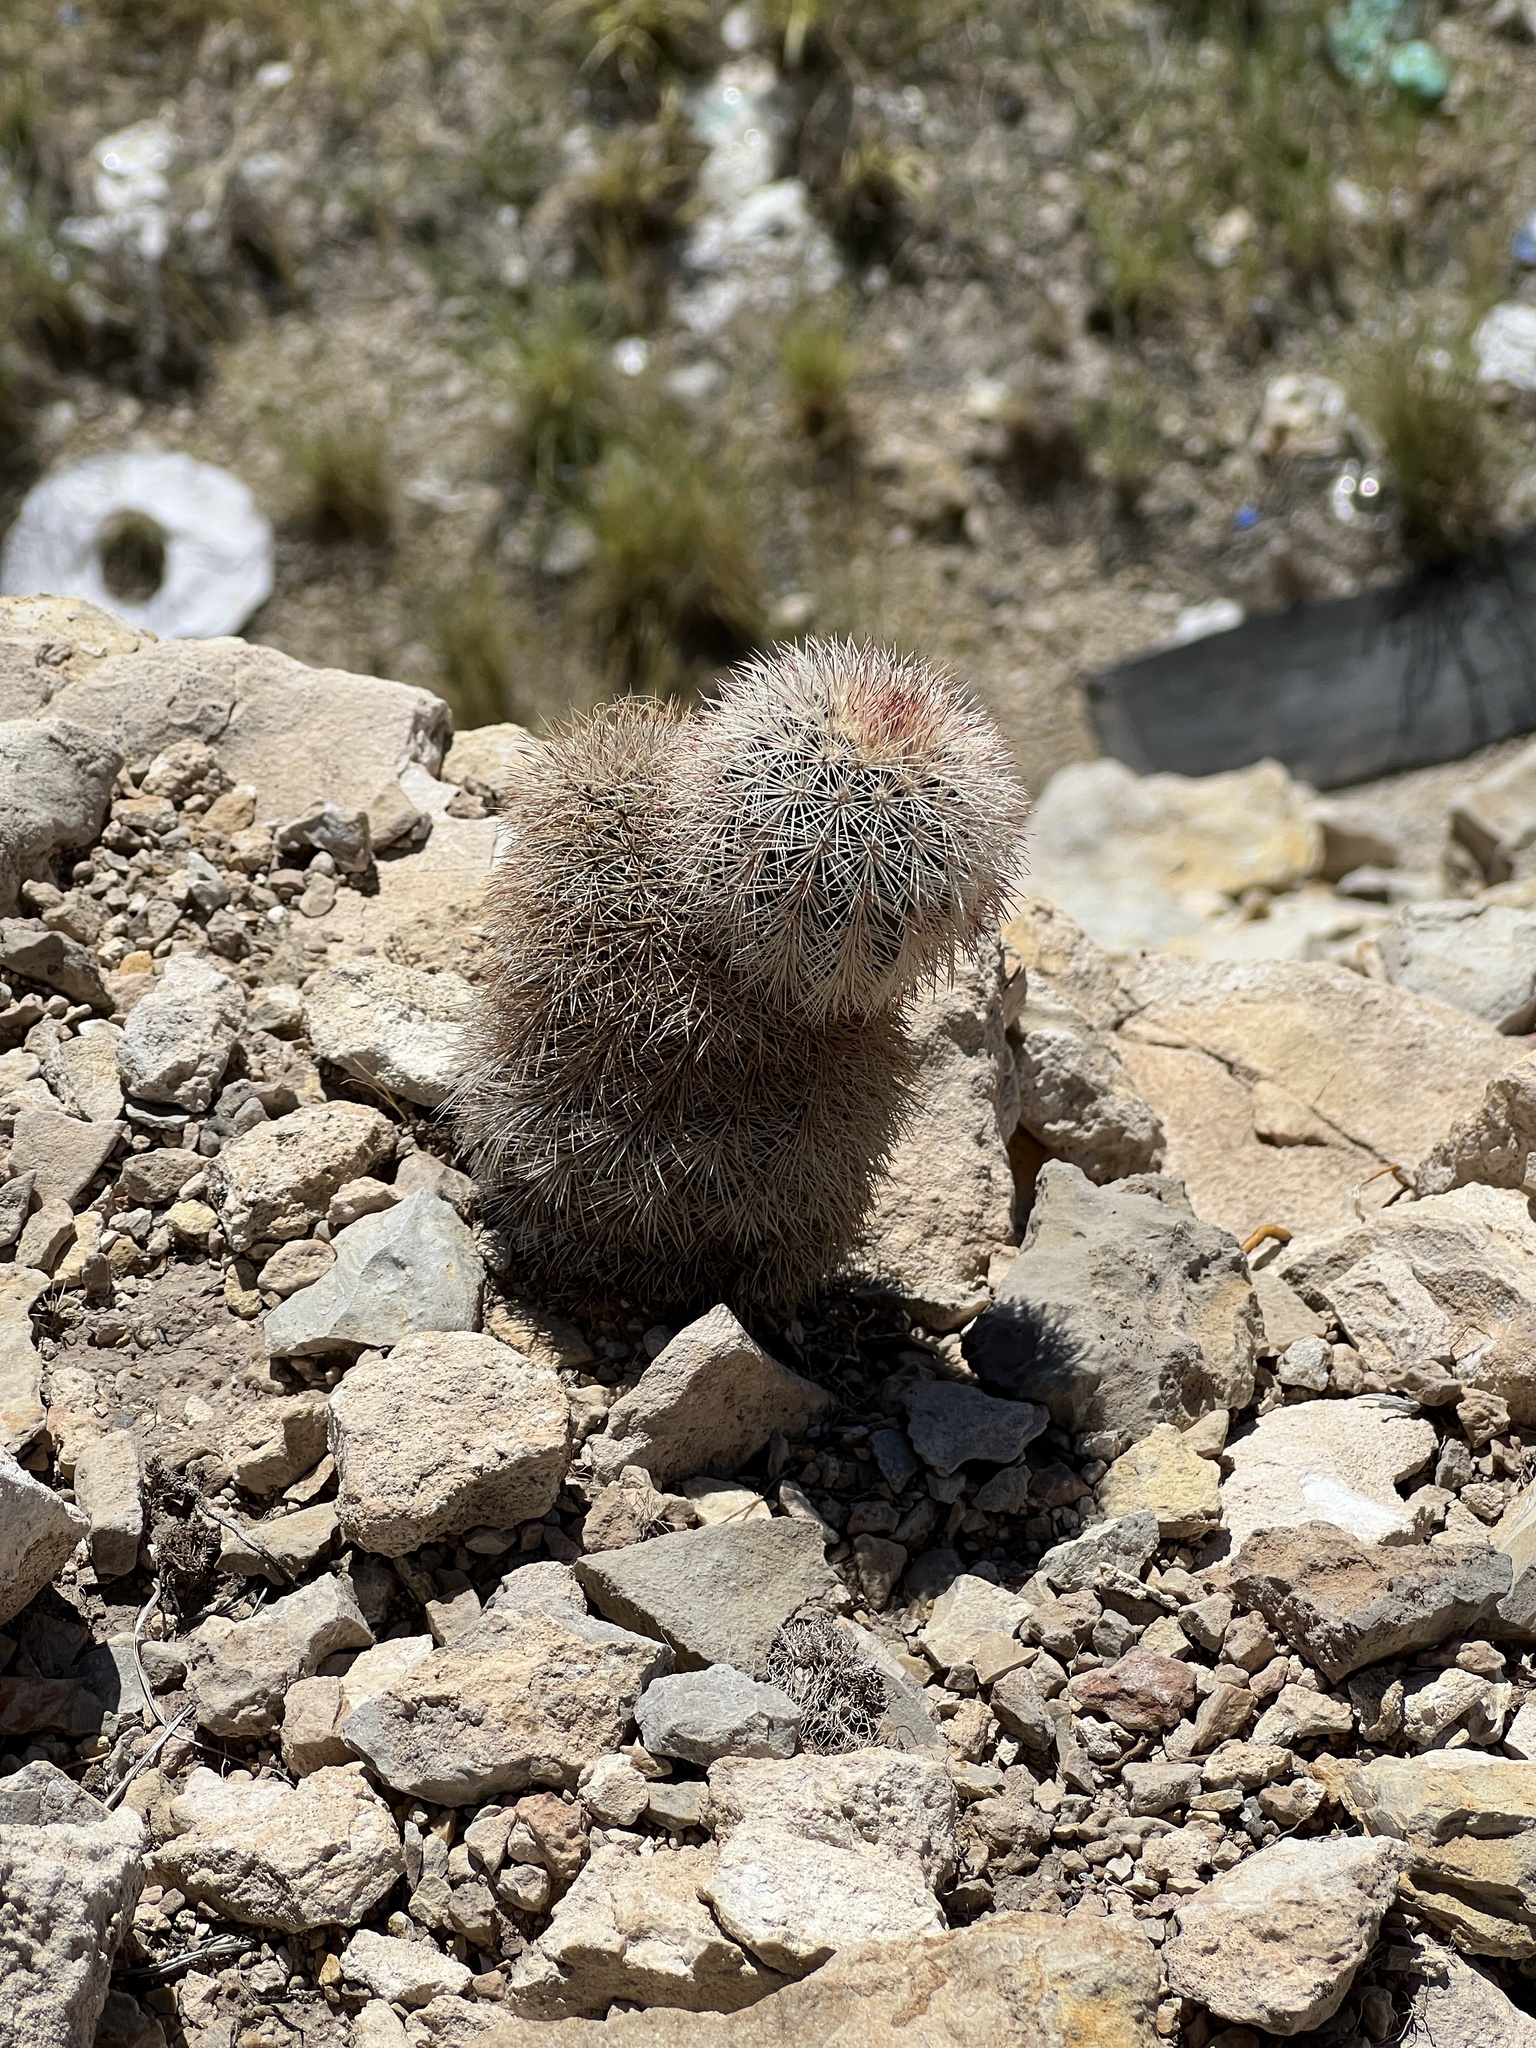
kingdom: Plantae
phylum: Tracheophyta
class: Magnoliopsida
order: Caryophyllales
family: Cactaceae
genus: Echinocereus
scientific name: Echinocereus dasyacanthus
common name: Spiny hedgehog cactus
